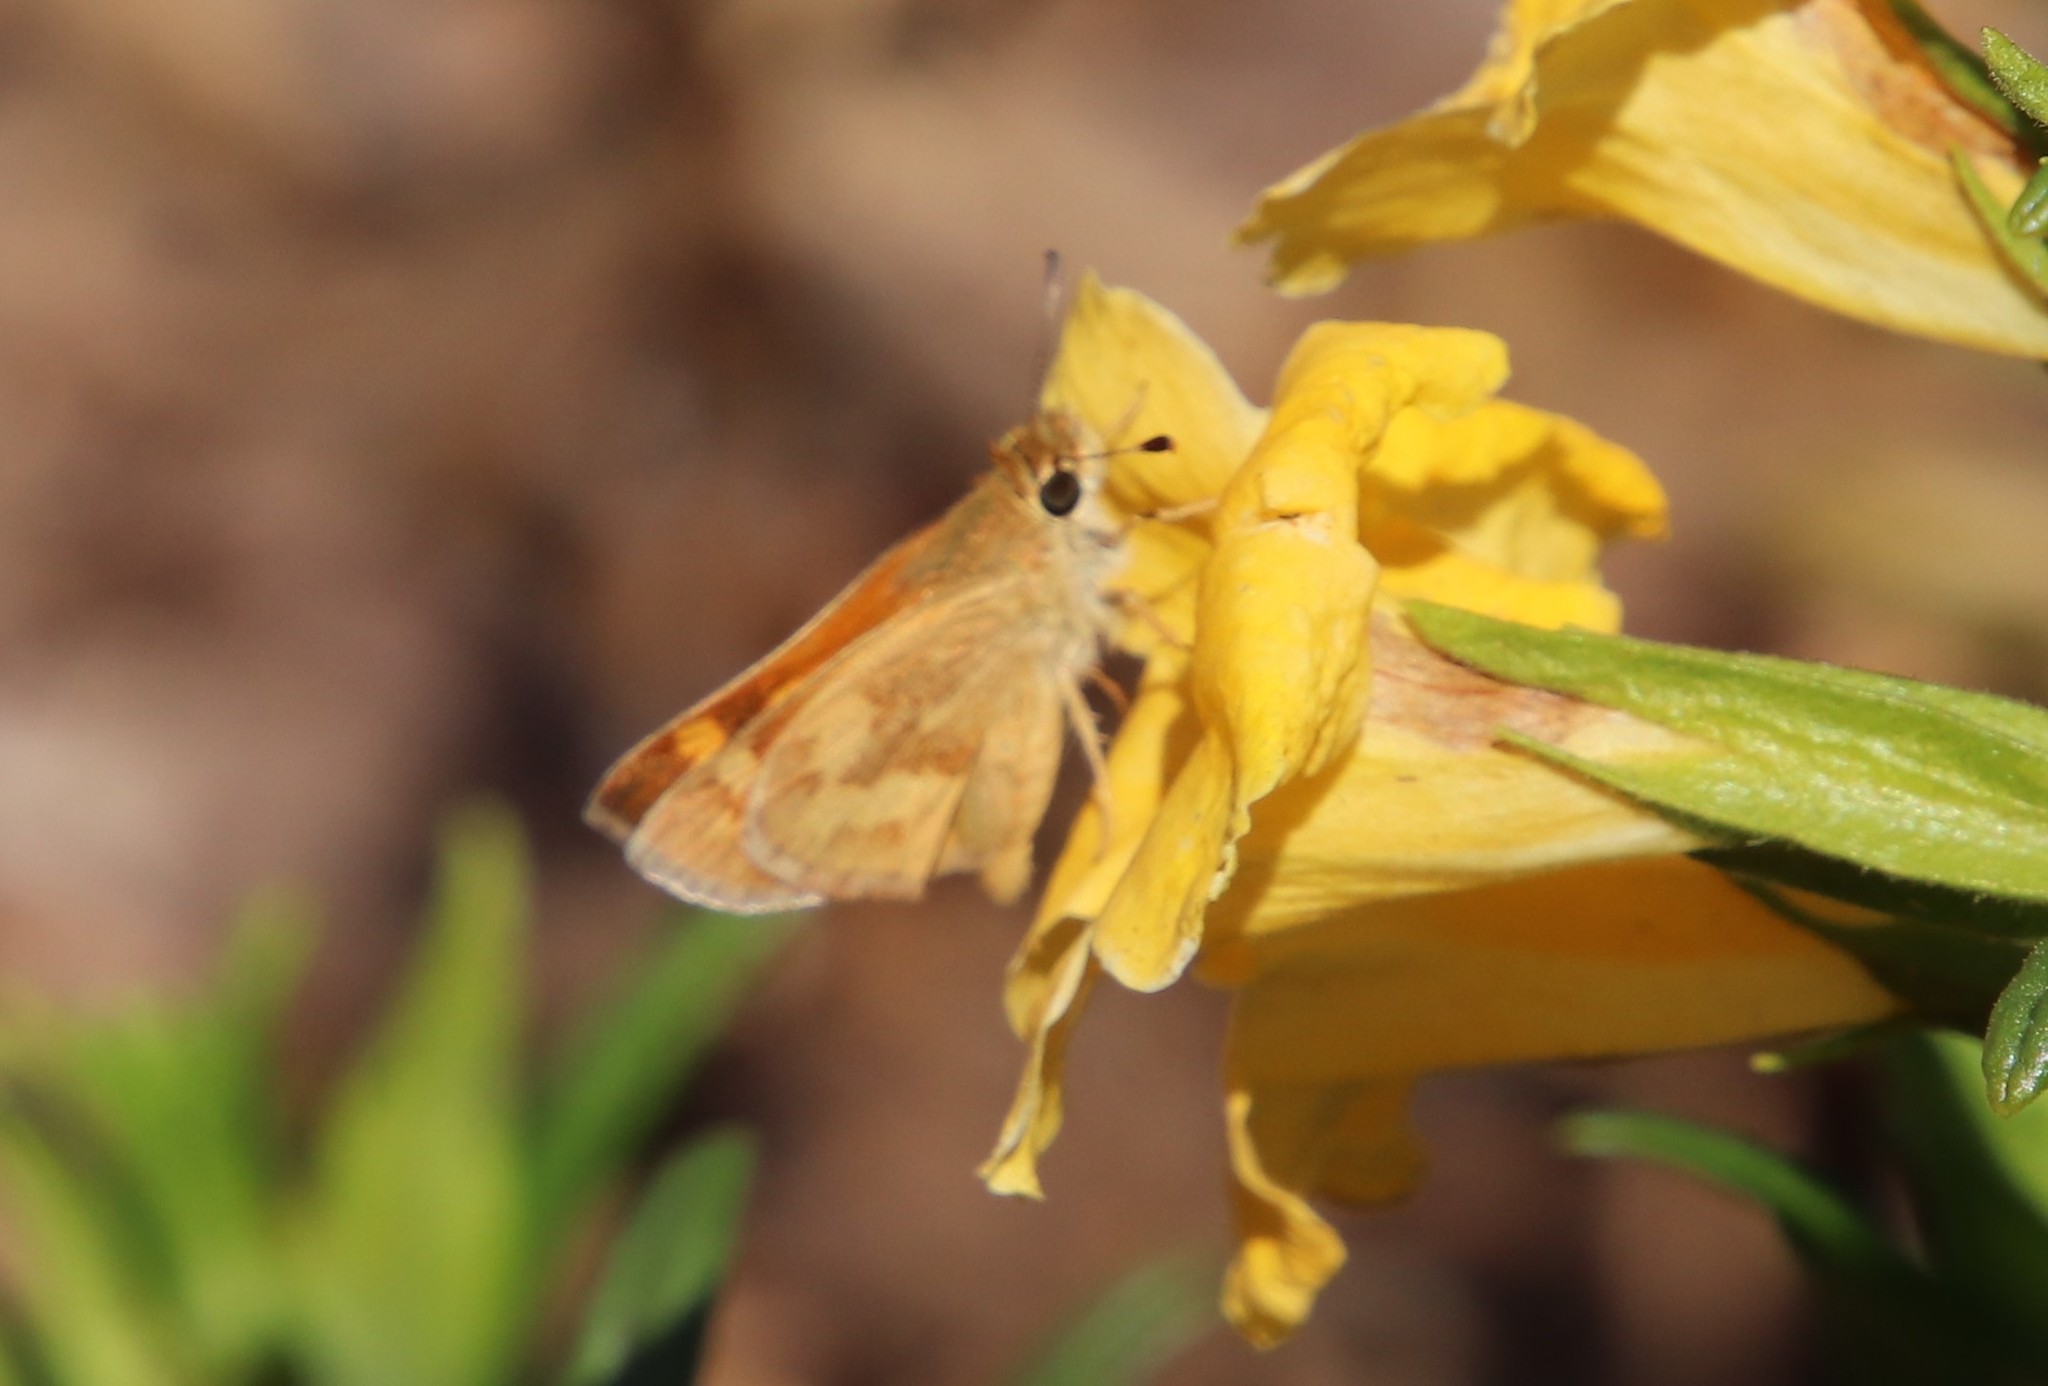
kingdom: Animalia
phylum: Arthropoda
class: Insecta
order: Lepidoptera
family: Hesperiidae
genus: Ochlodes
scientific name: Ochlodes sylvanoides
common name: Woodland skipper
